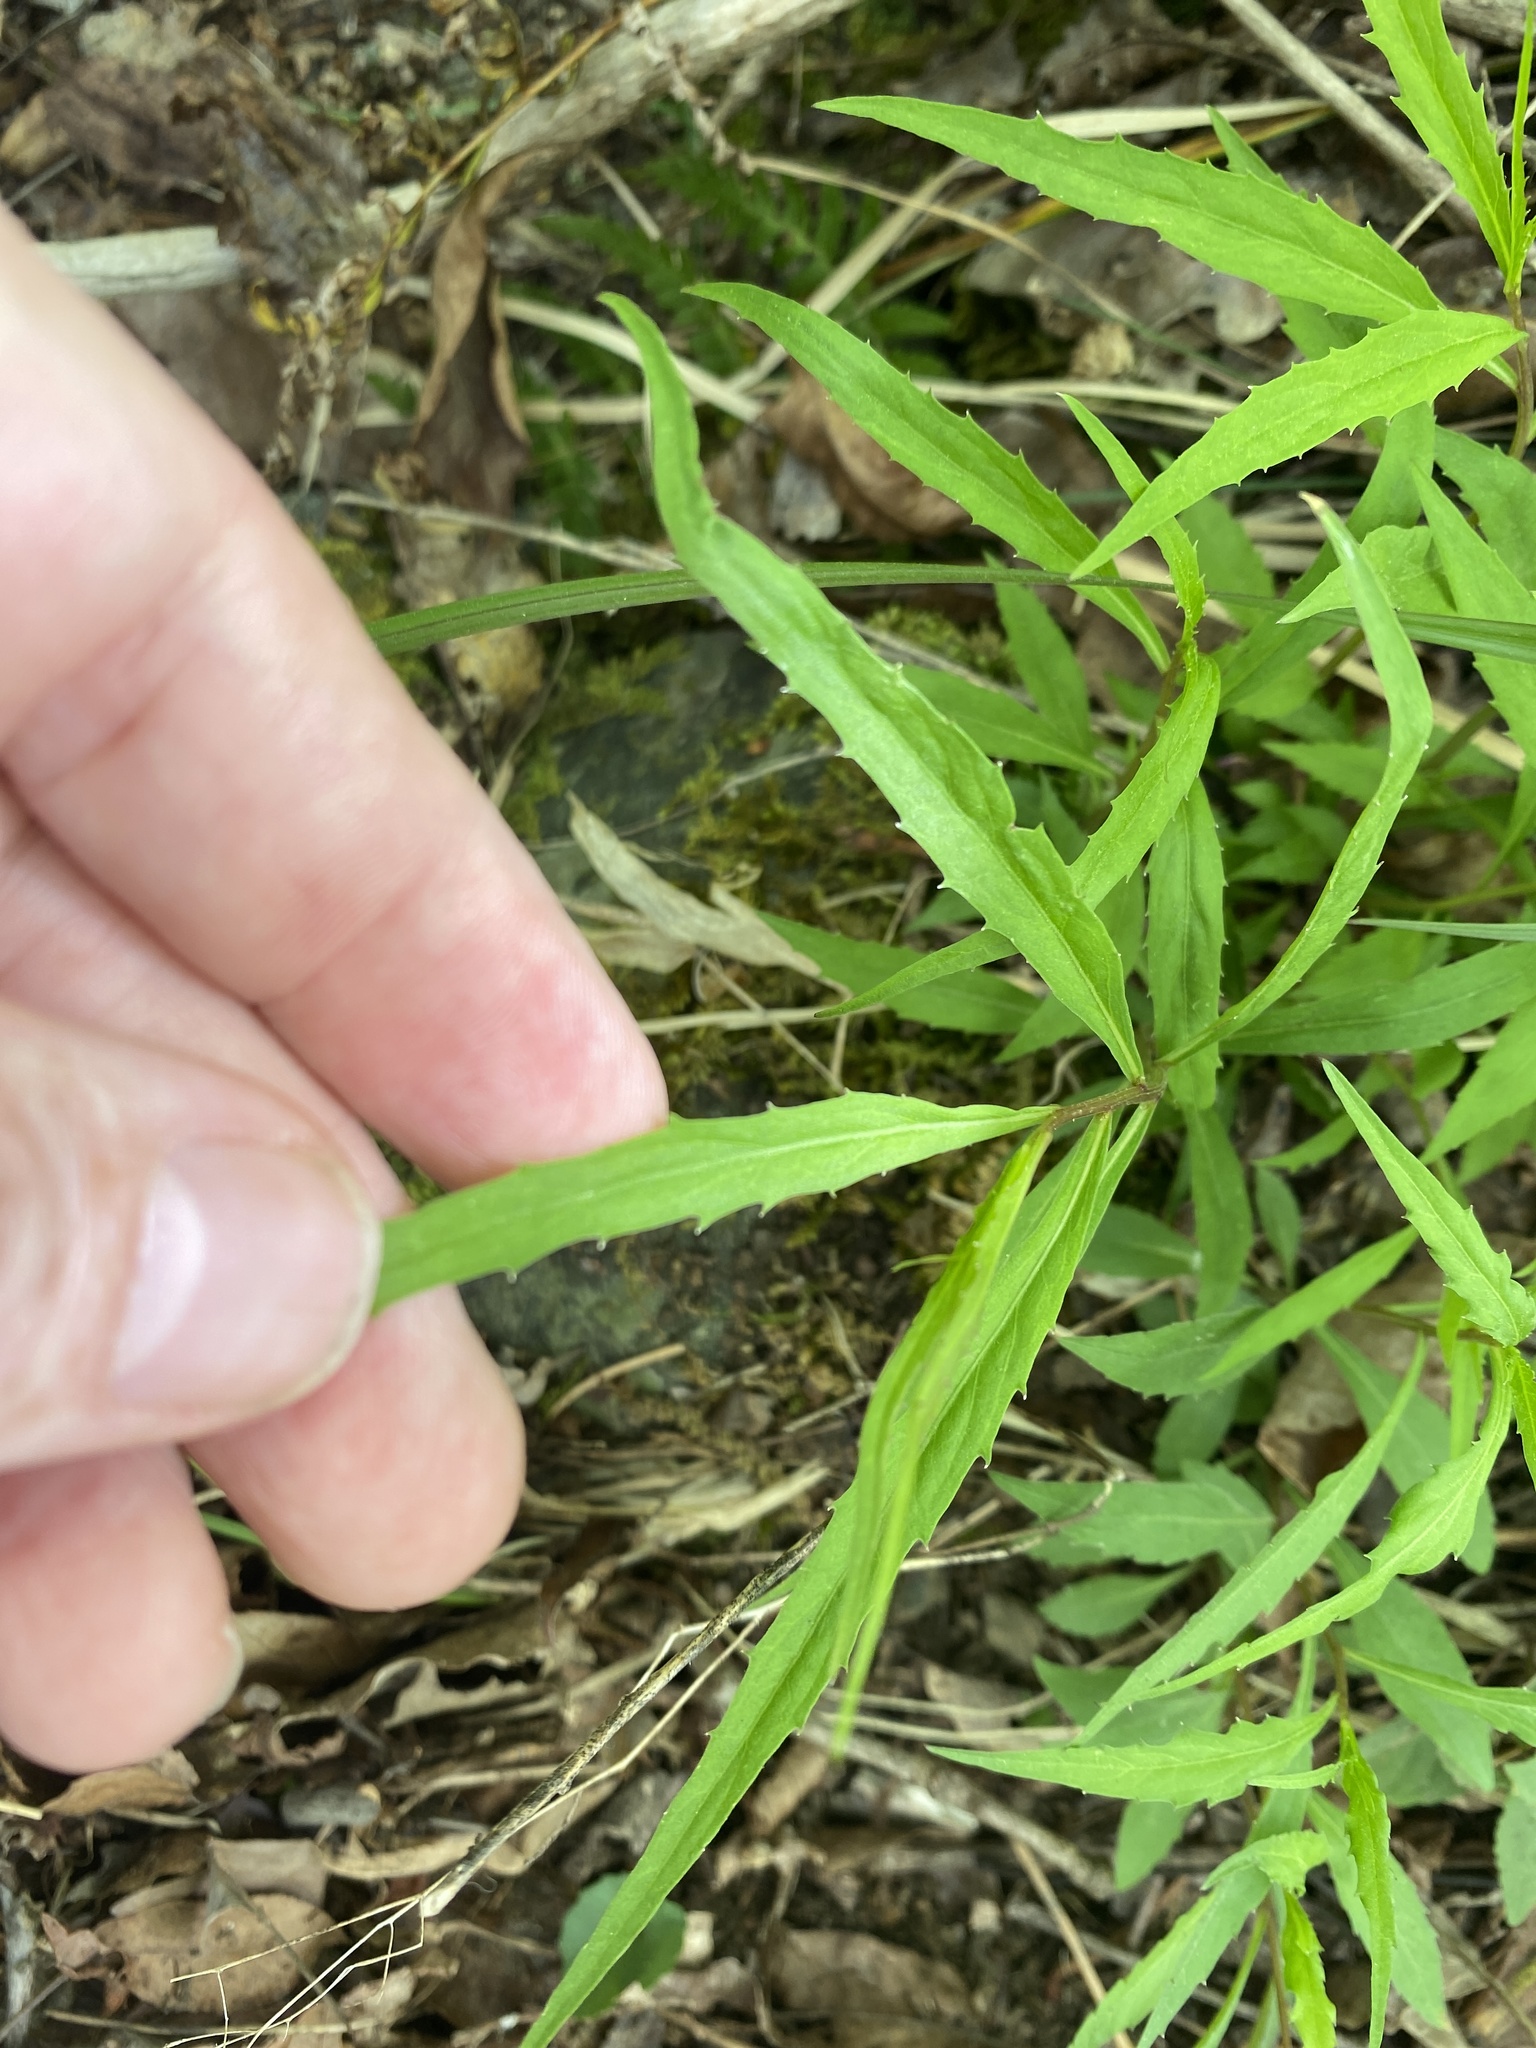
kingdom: Plantae
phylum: Tracheophyta
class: Magnoliopsida
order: Asterales
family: Campanulaceae
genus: Campanula
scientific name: Campanula divaricata
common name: Appalachian bellflower
